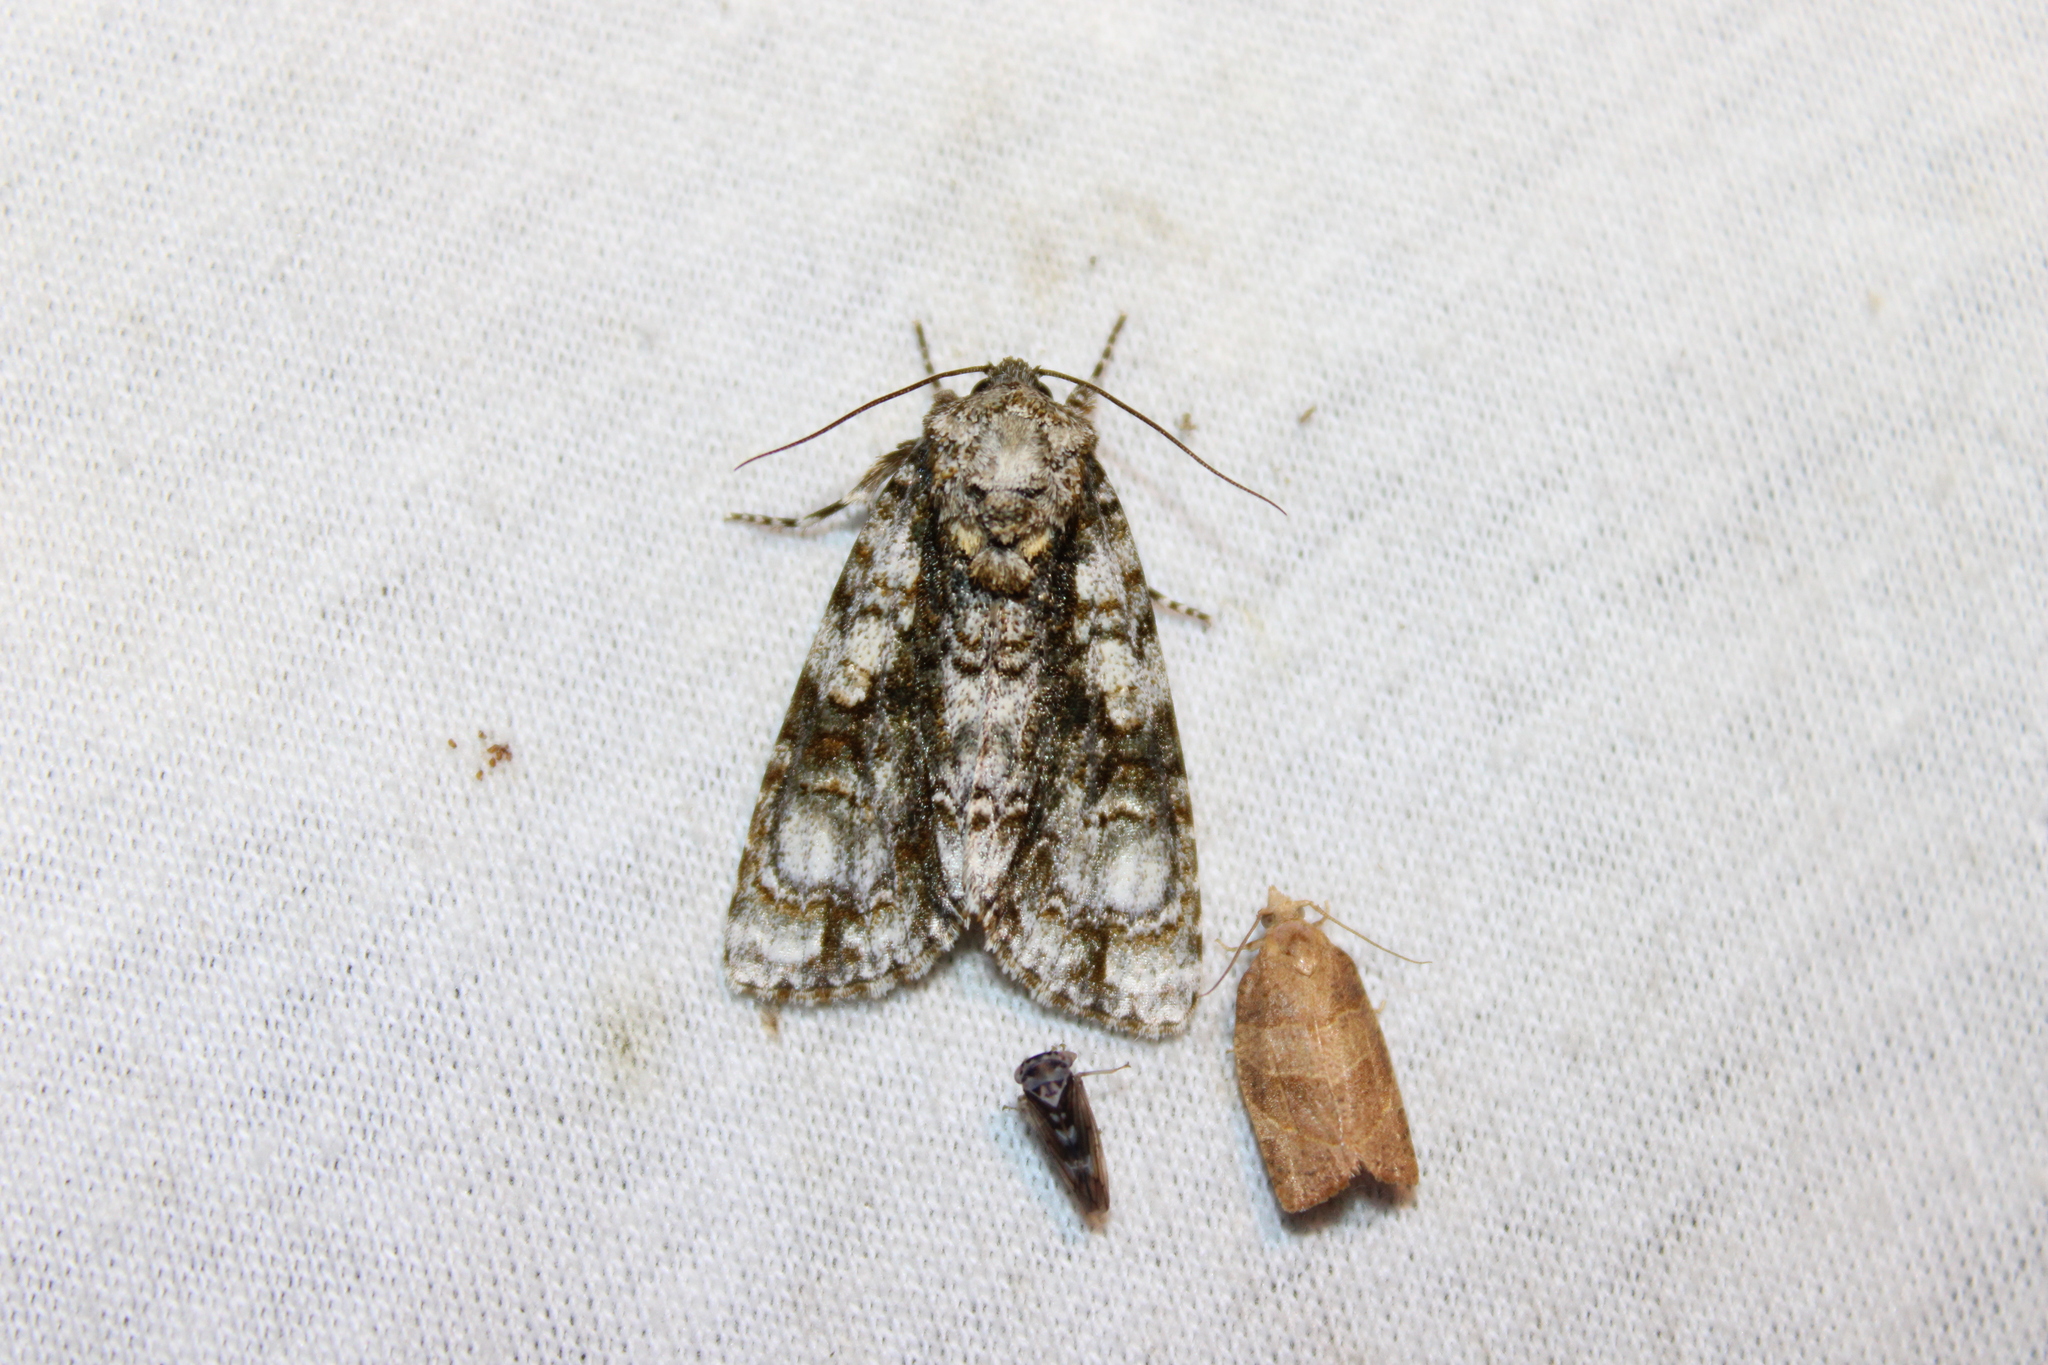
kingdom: Animalia
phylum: Arthropoda
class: Insecta
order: Lepidoptera
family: Noctuidae
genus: Acronicta
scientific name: Acronicta superans
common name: Splendid dagger
